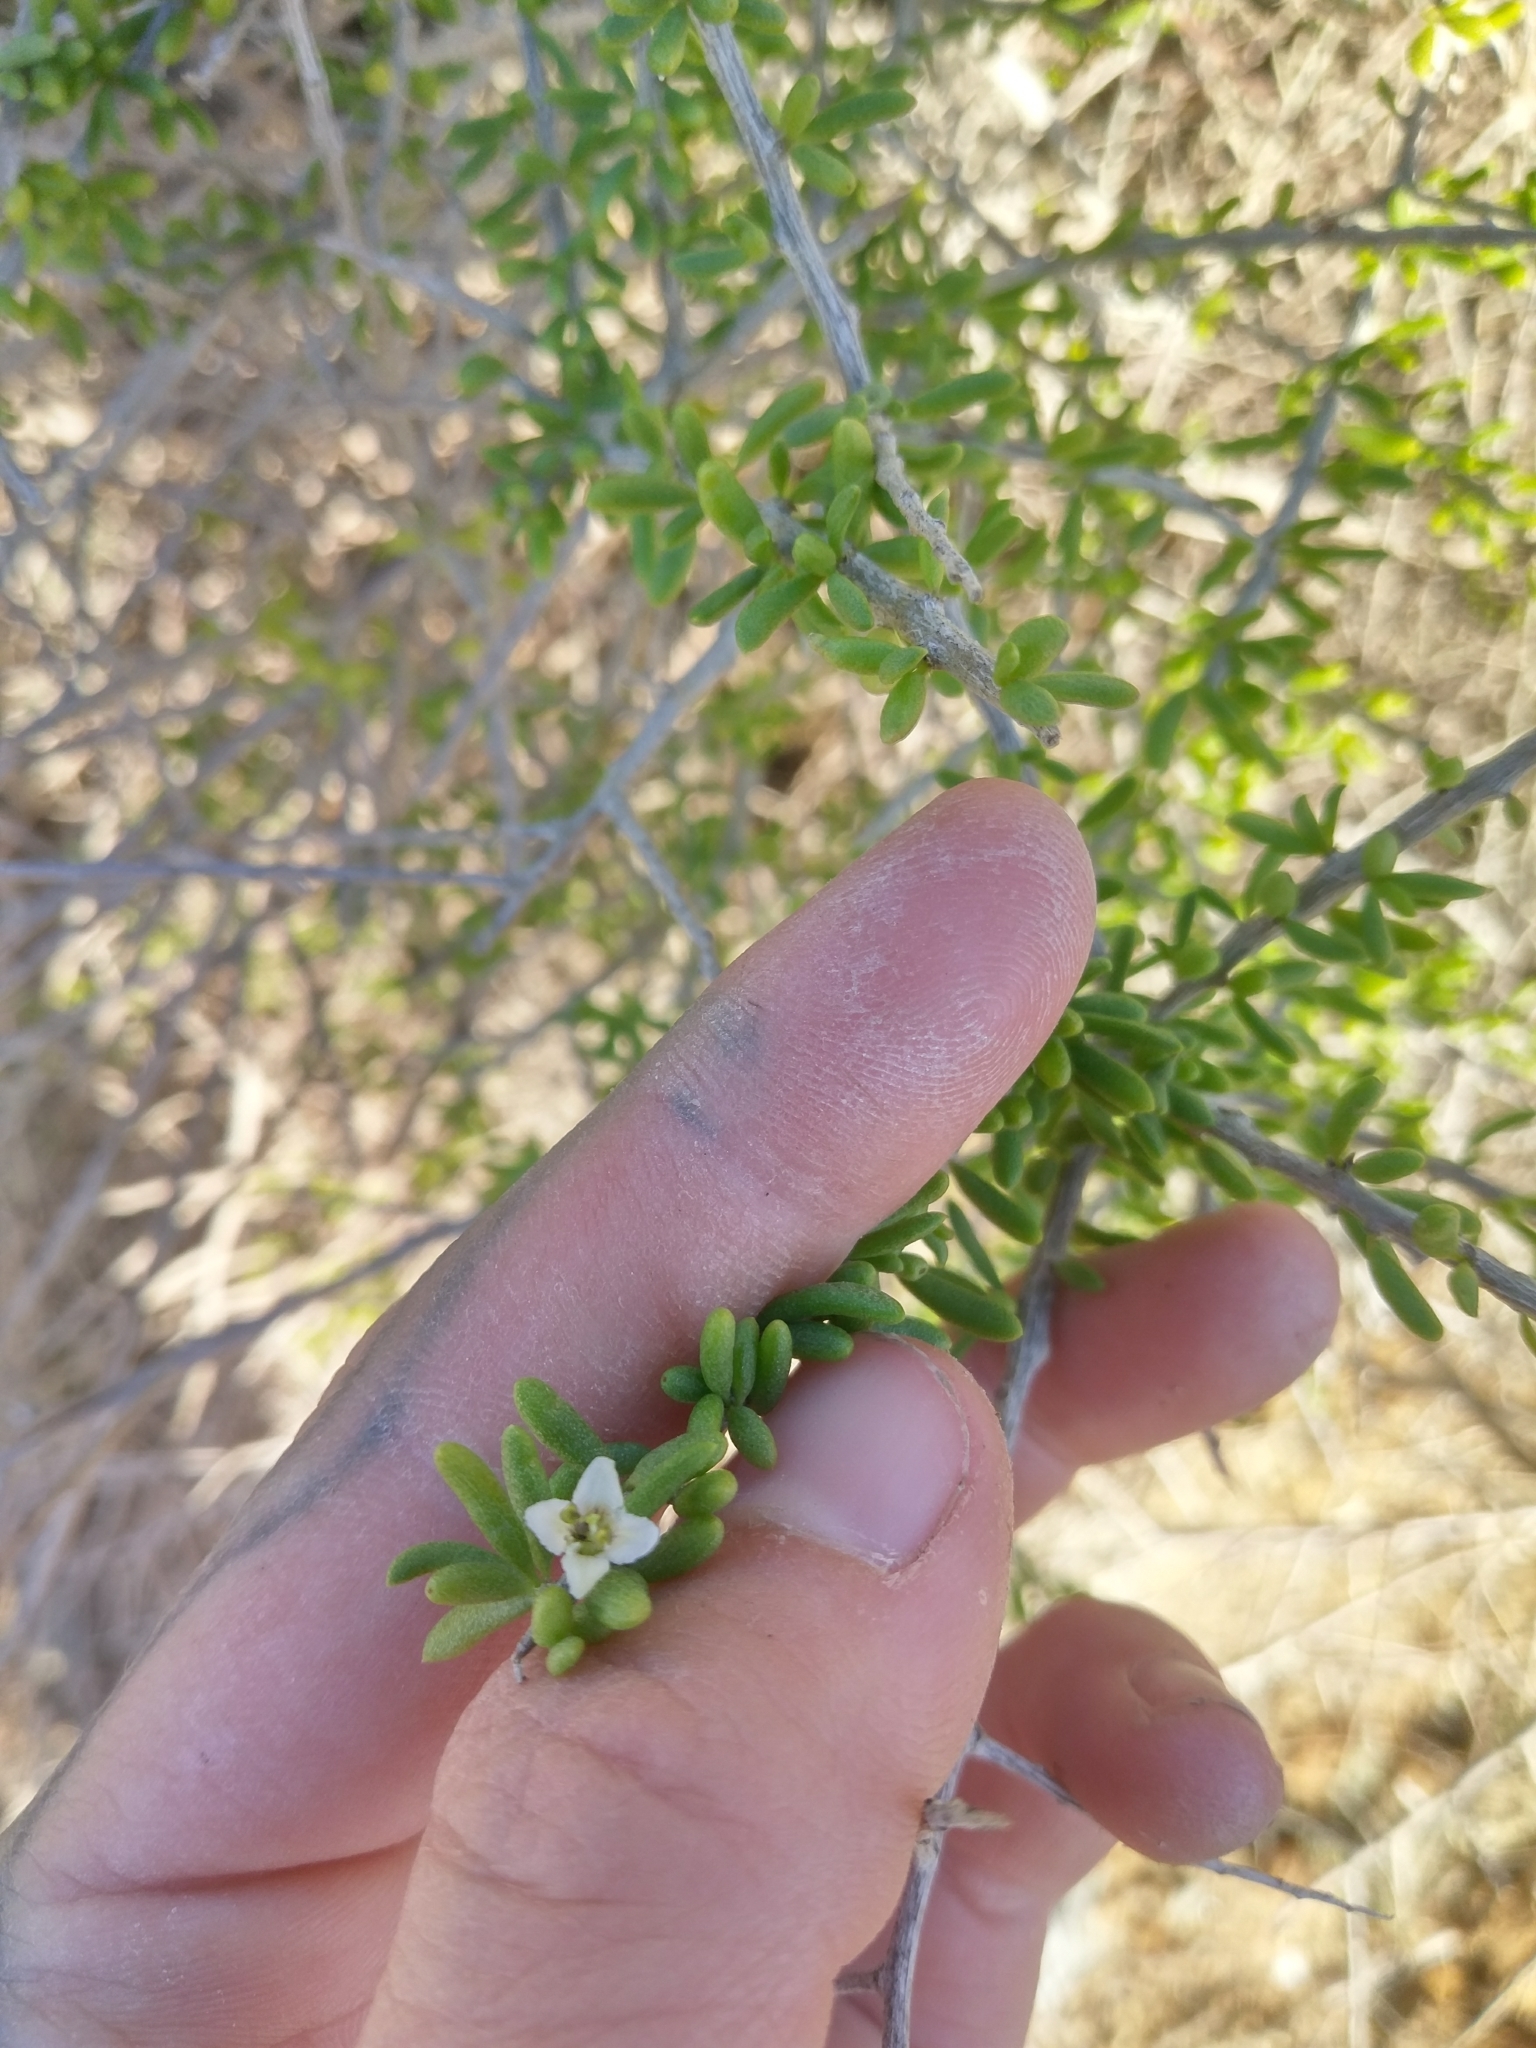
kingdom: Plantae
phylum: Tracheophyta
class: Magnoliopsida
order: Solanales
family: Solanaceae
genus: Lycium
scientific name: Lycium californicum
